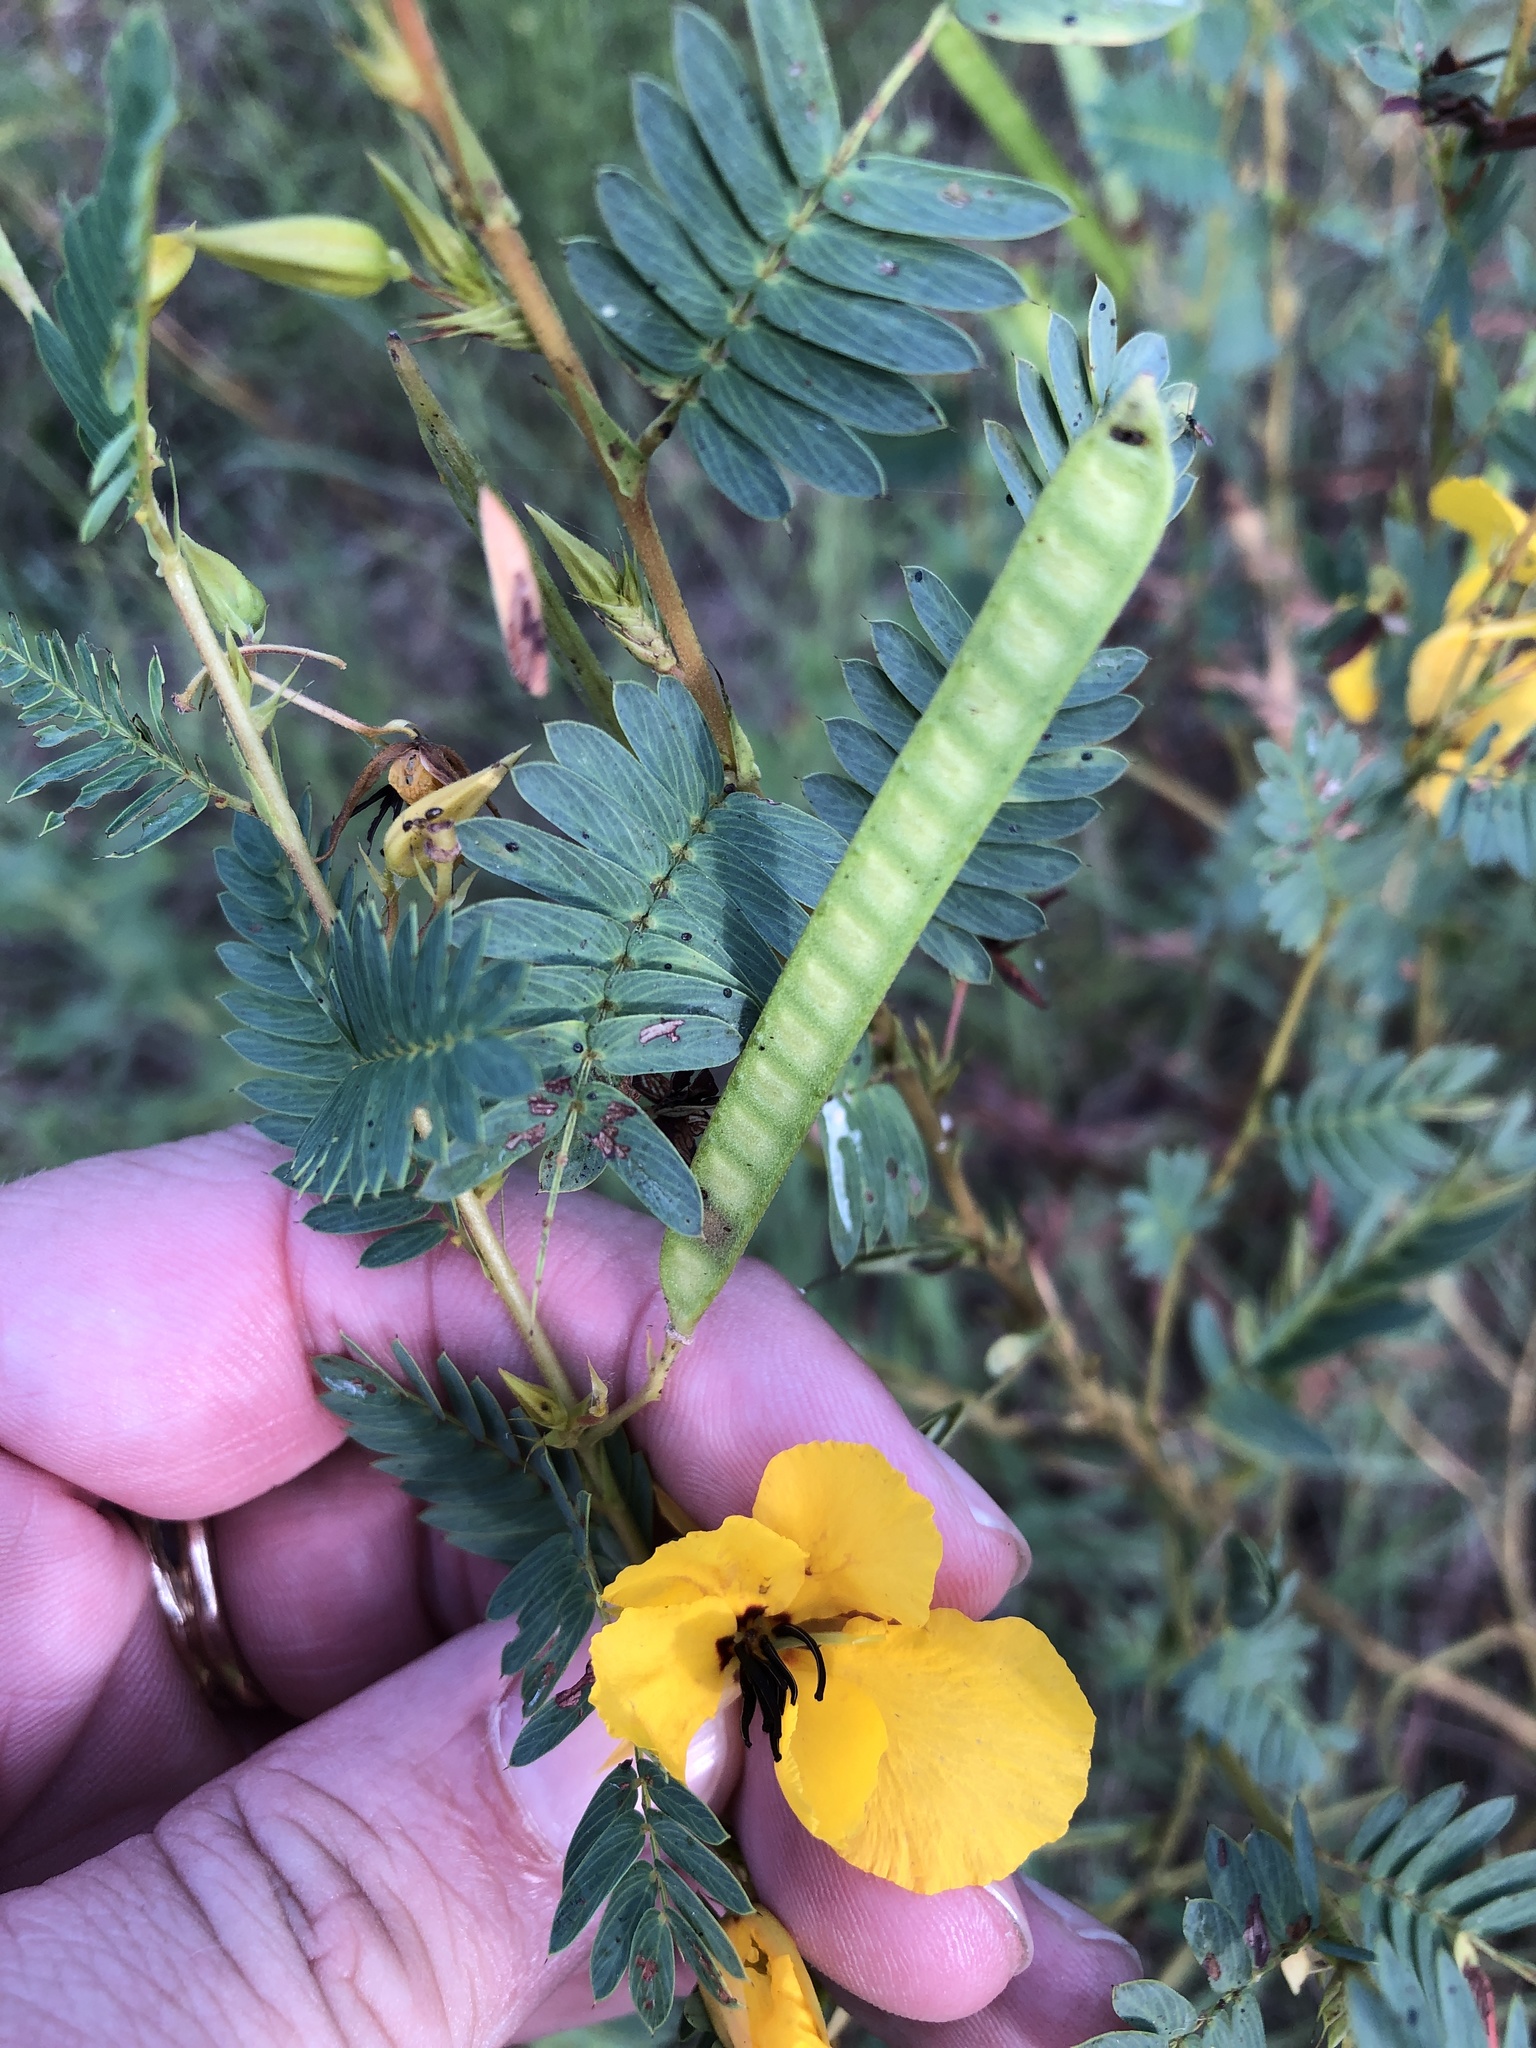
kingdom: Plantae
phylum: Tracheophyta
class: Magnoliopsida
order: Fabales
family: Fabaceae
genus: Chamaecrista
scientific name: Chamaecrista fasciculata
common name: Golden cassia
